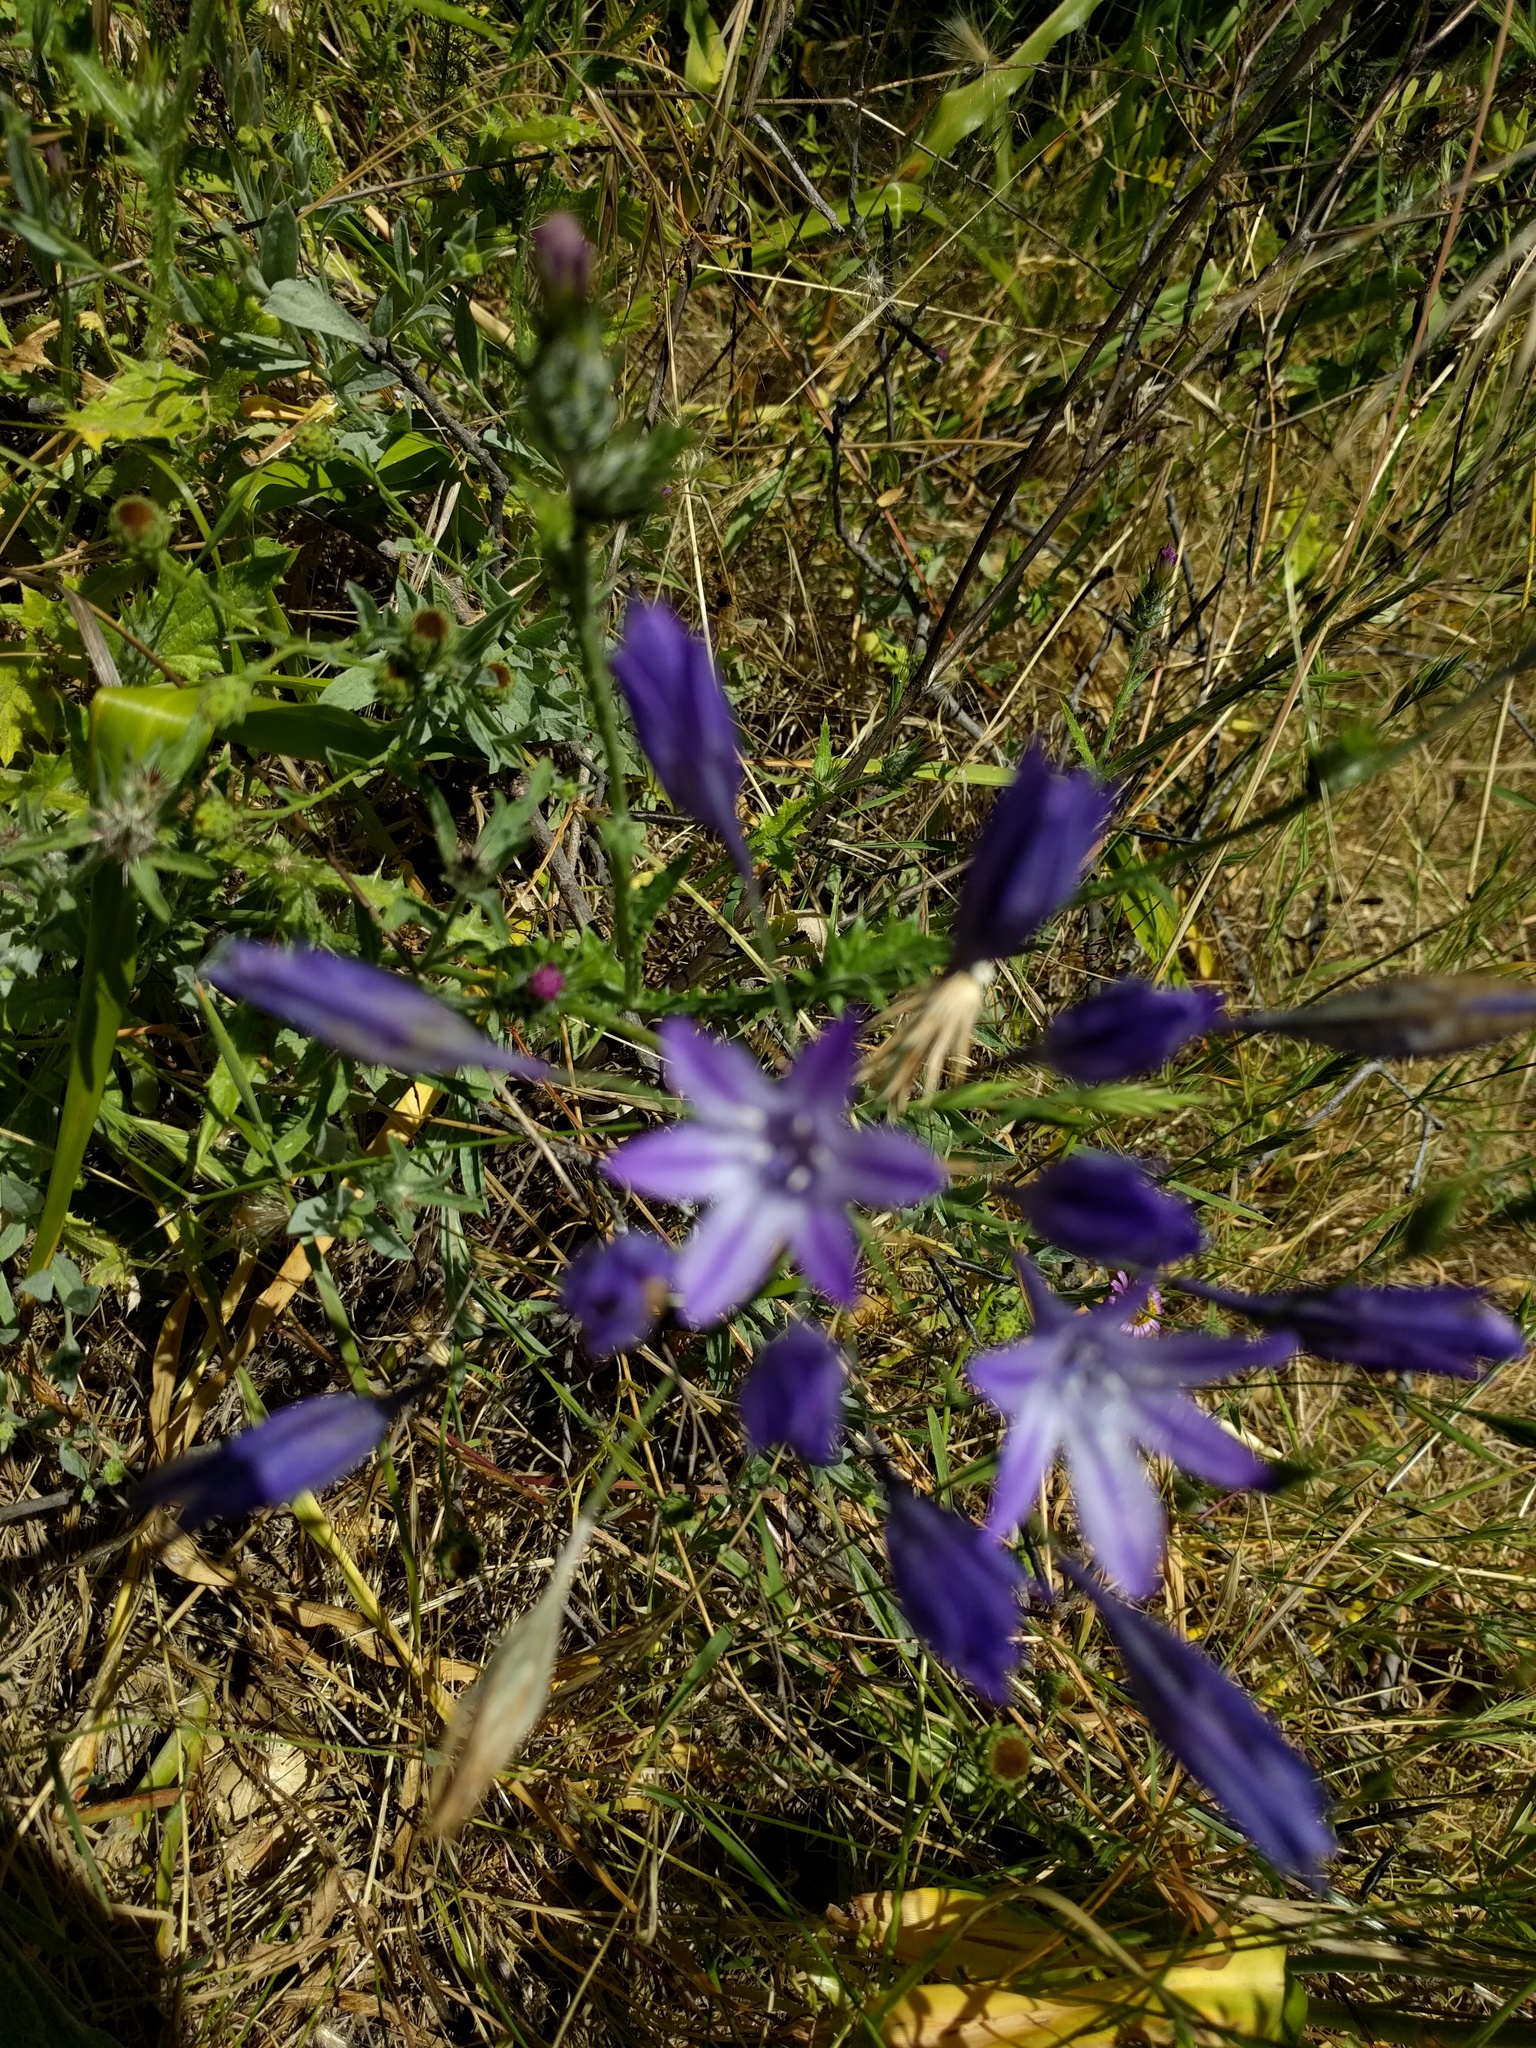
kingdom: Plantae
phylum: Tracheophyta
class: Liliopsida
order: Asparagales
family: Asparagaceae
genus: Triteleia
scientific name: Triteleia laxa
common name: Triplet-lily
